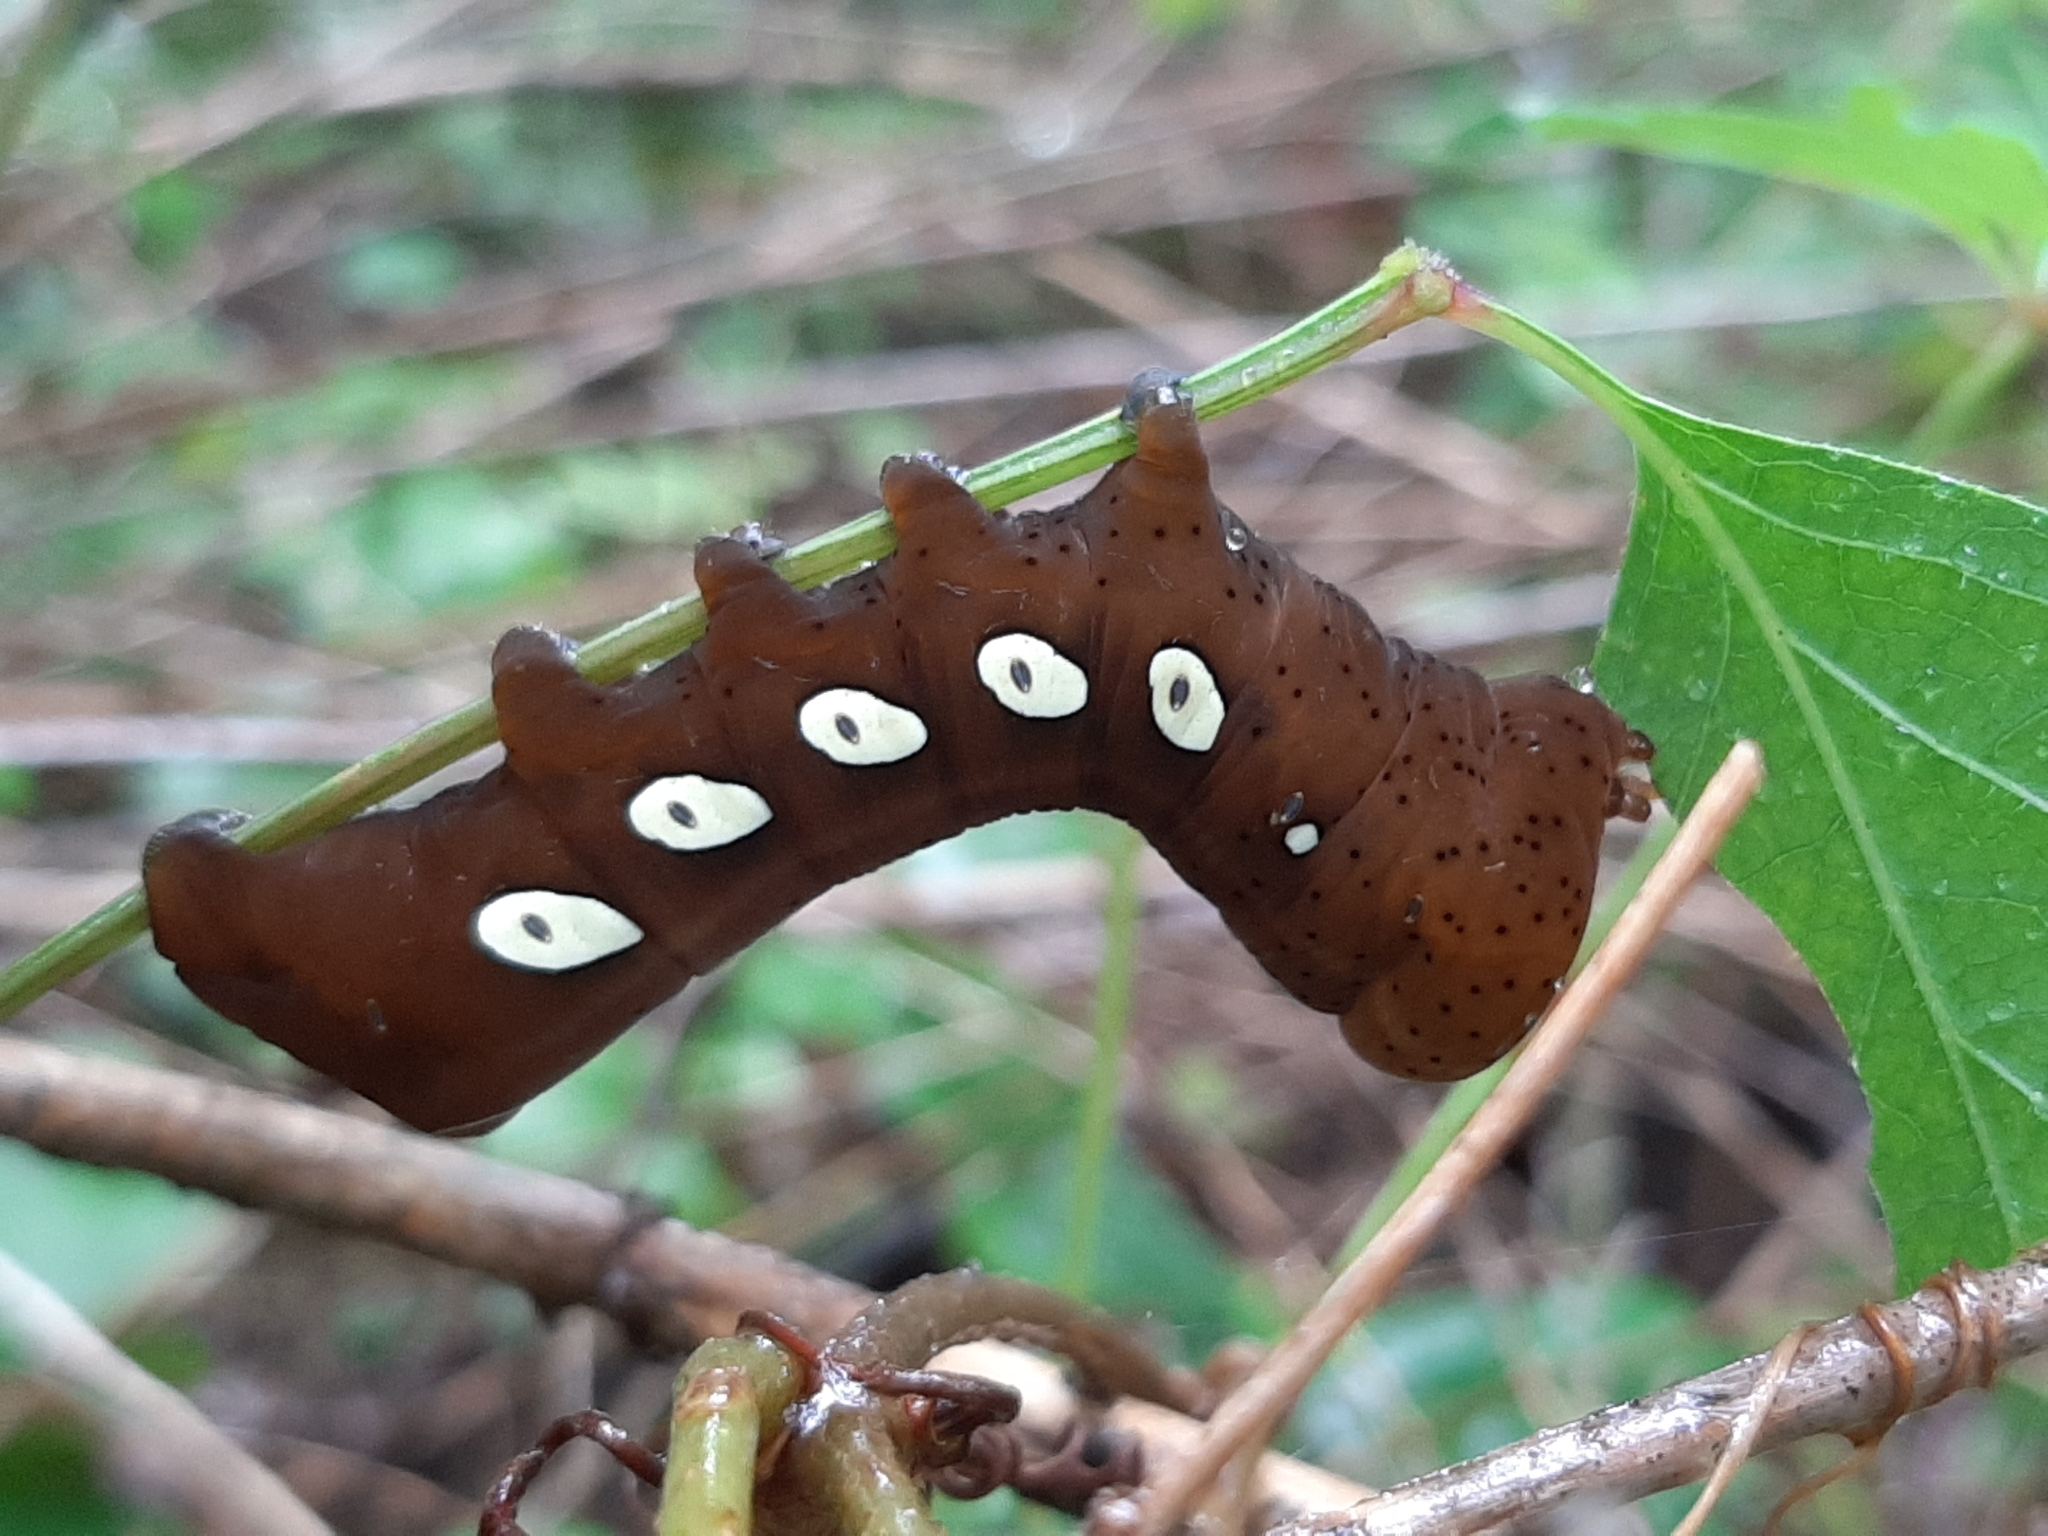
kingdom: Animalia
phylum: Arthropoda
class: Insecta
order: Lepidoptera
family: Sphingidae
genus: Eumorpha
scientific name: Eumorpha pandorus
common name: Pandora sphinx
